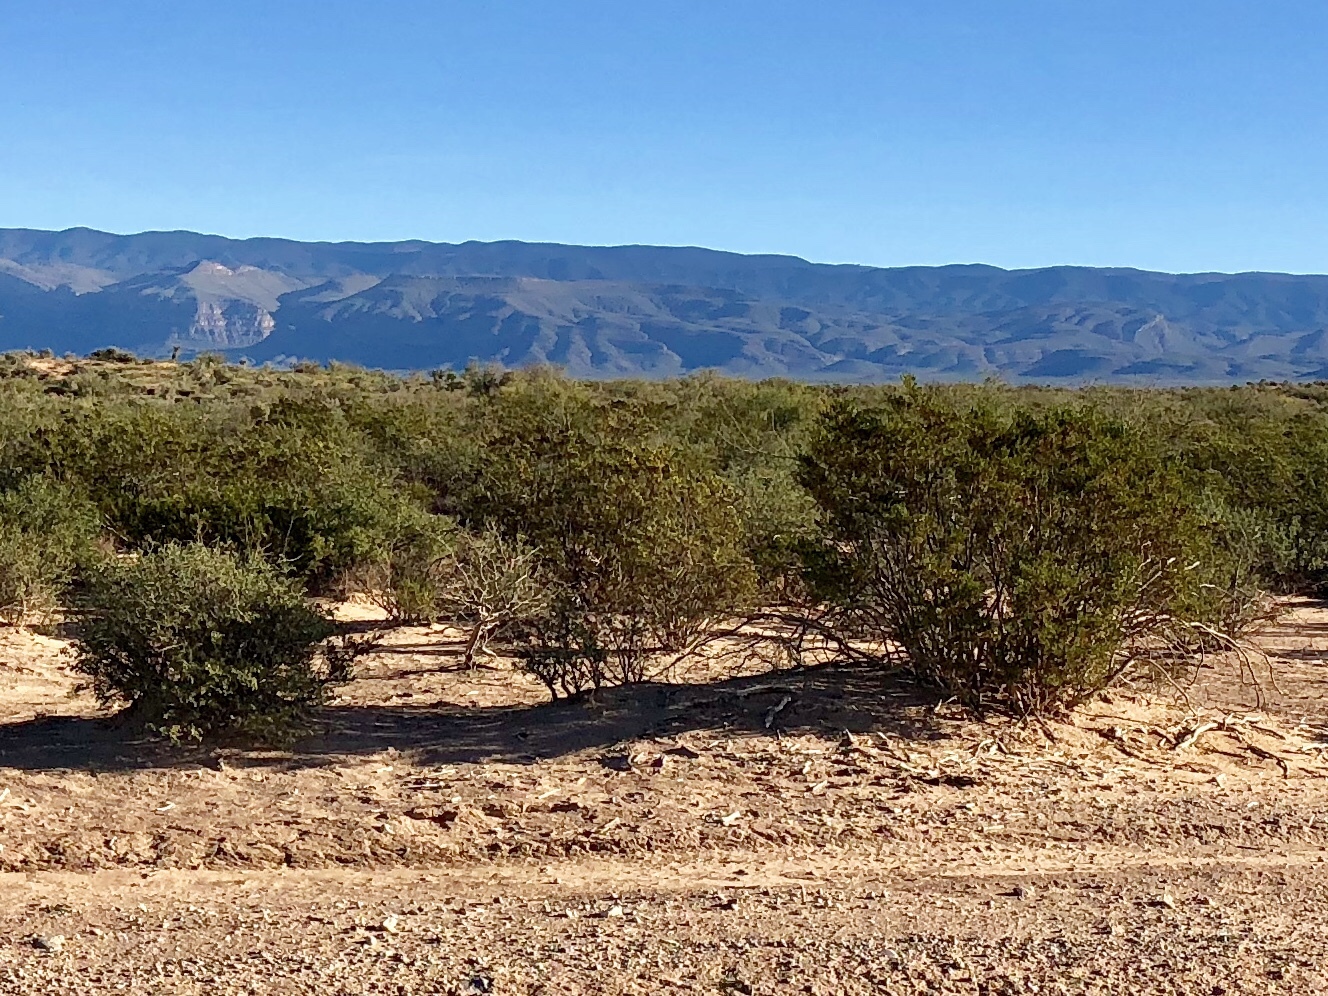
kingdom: Plantae
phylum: Tracheophyta
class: Magnoliopsida
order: Zygophyllales
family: Zygophyllaceae
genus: Larrea
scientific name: Larrea tridentata
